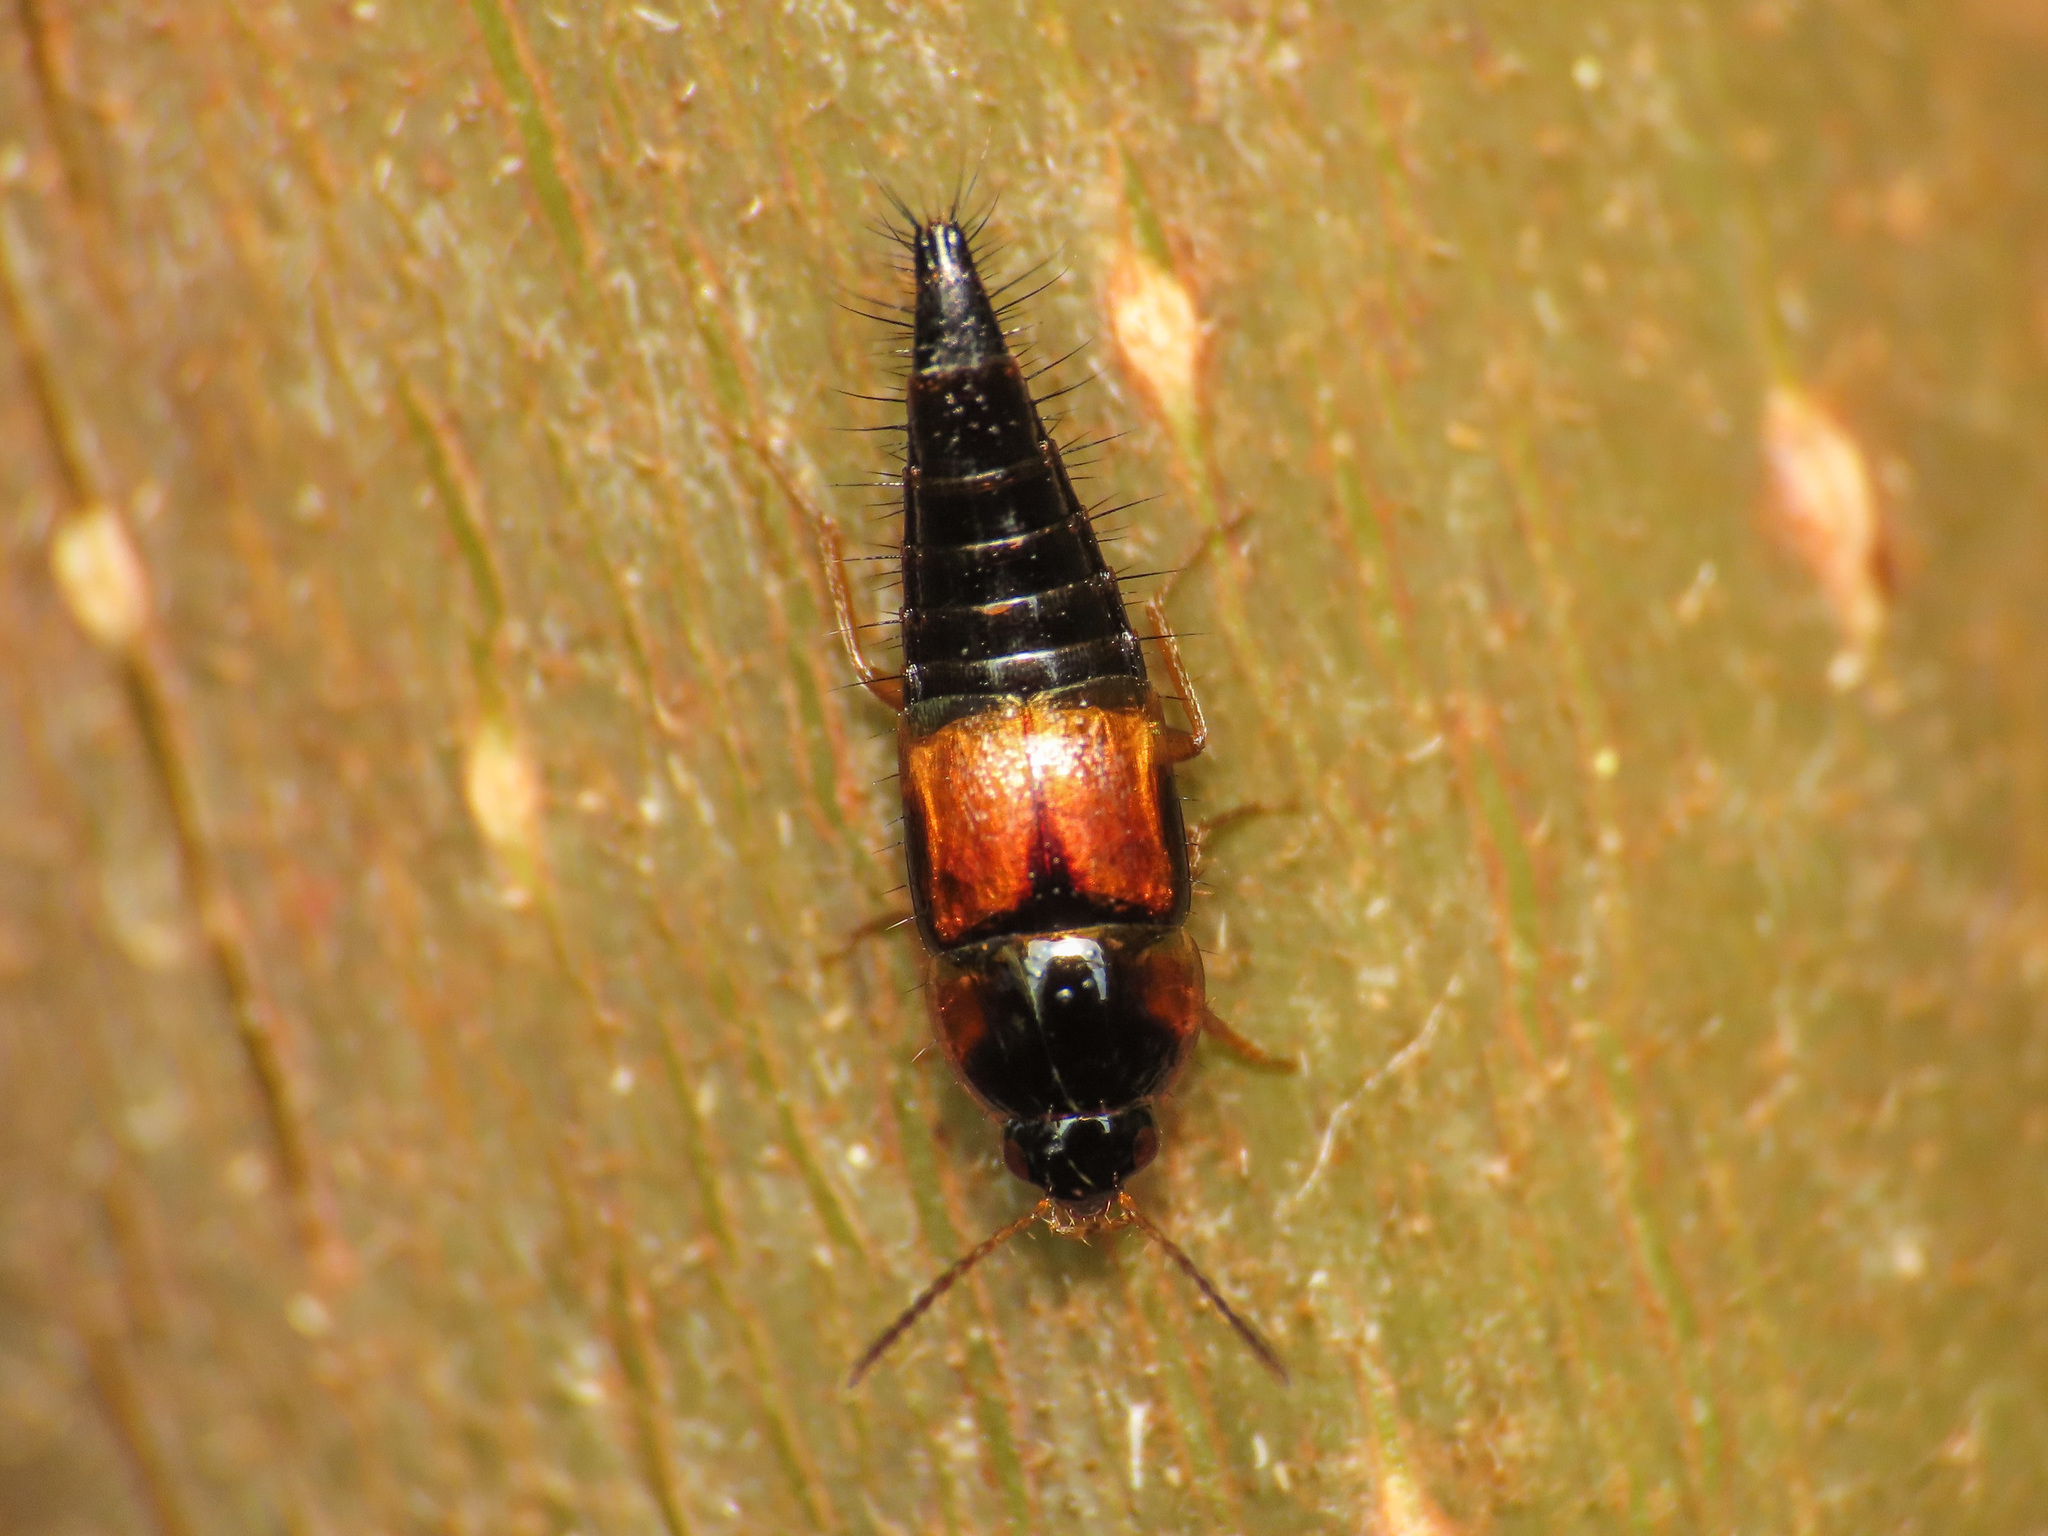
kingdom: Animalia
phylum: Arthropoda
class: Insecta
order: Coleoptera
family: Staphylinidae
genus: Tachyporus
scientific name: Tachyporus hypnorum
